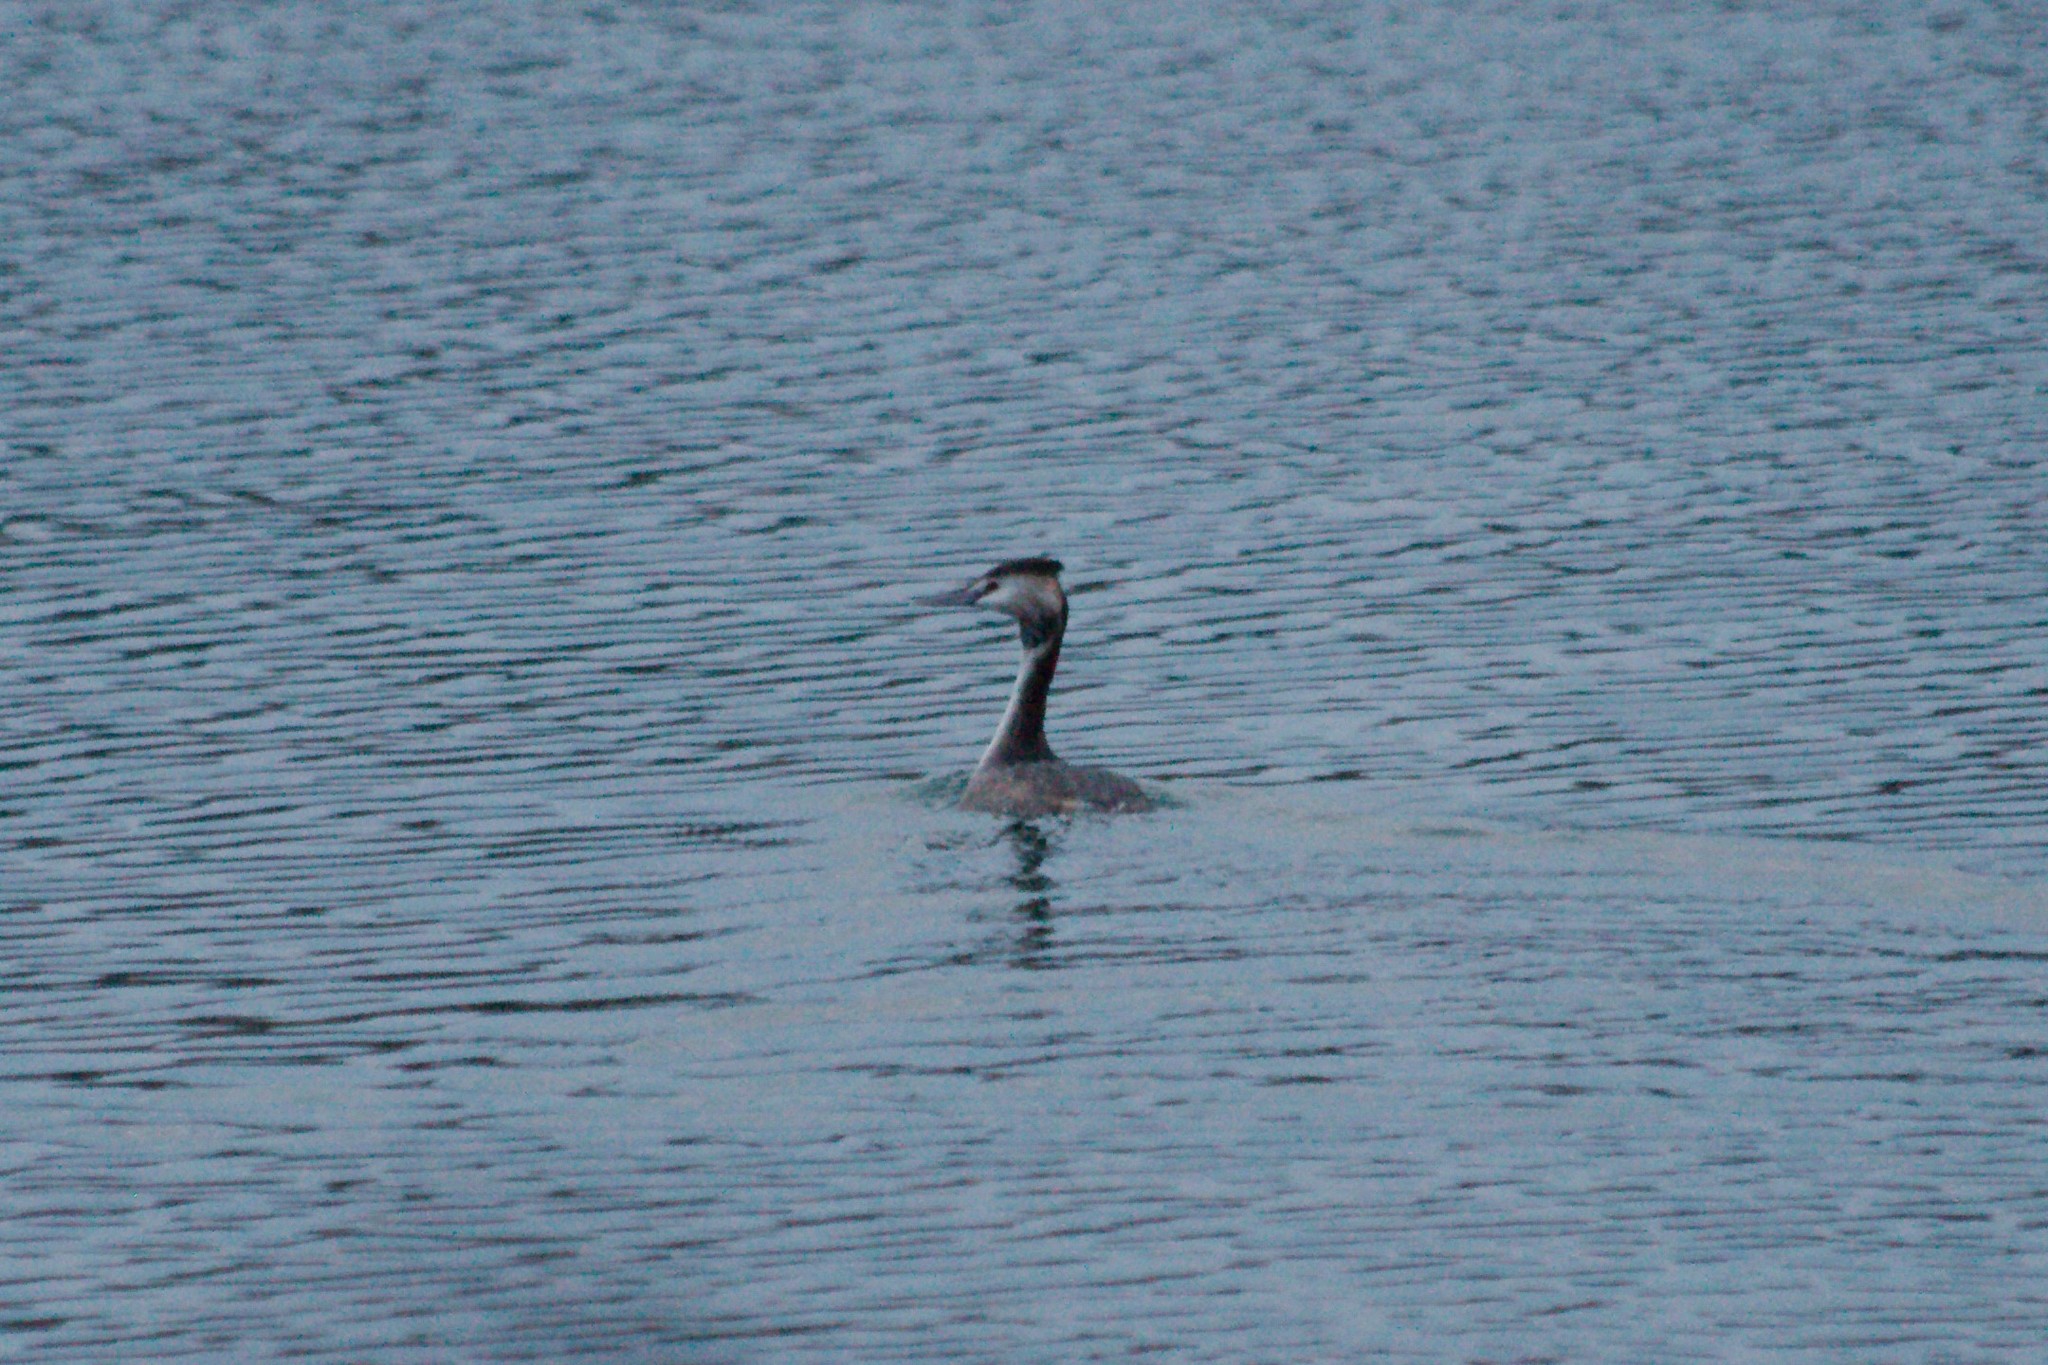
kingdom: Animalia
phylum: Chordata
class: Aves
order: Podicipediformes
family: Podicipedidae
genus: Podiceps
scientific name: Podiceps cristatus
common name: Great crested grebe
